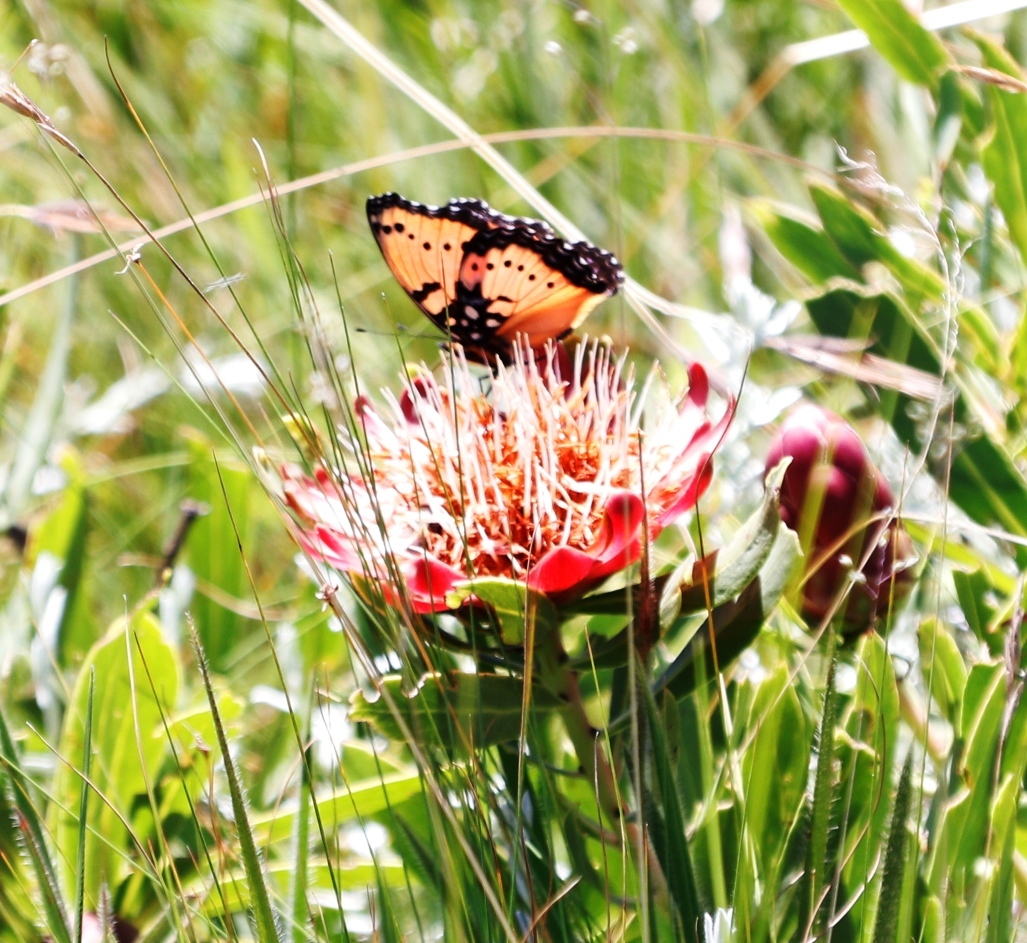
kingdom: Plantae
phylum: Tracheophyta
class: Magnoliopsida
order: Proteales
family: Proteaceae
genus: Protea
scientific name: Protea simplex
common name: Dwarf grassveld sugarbush
